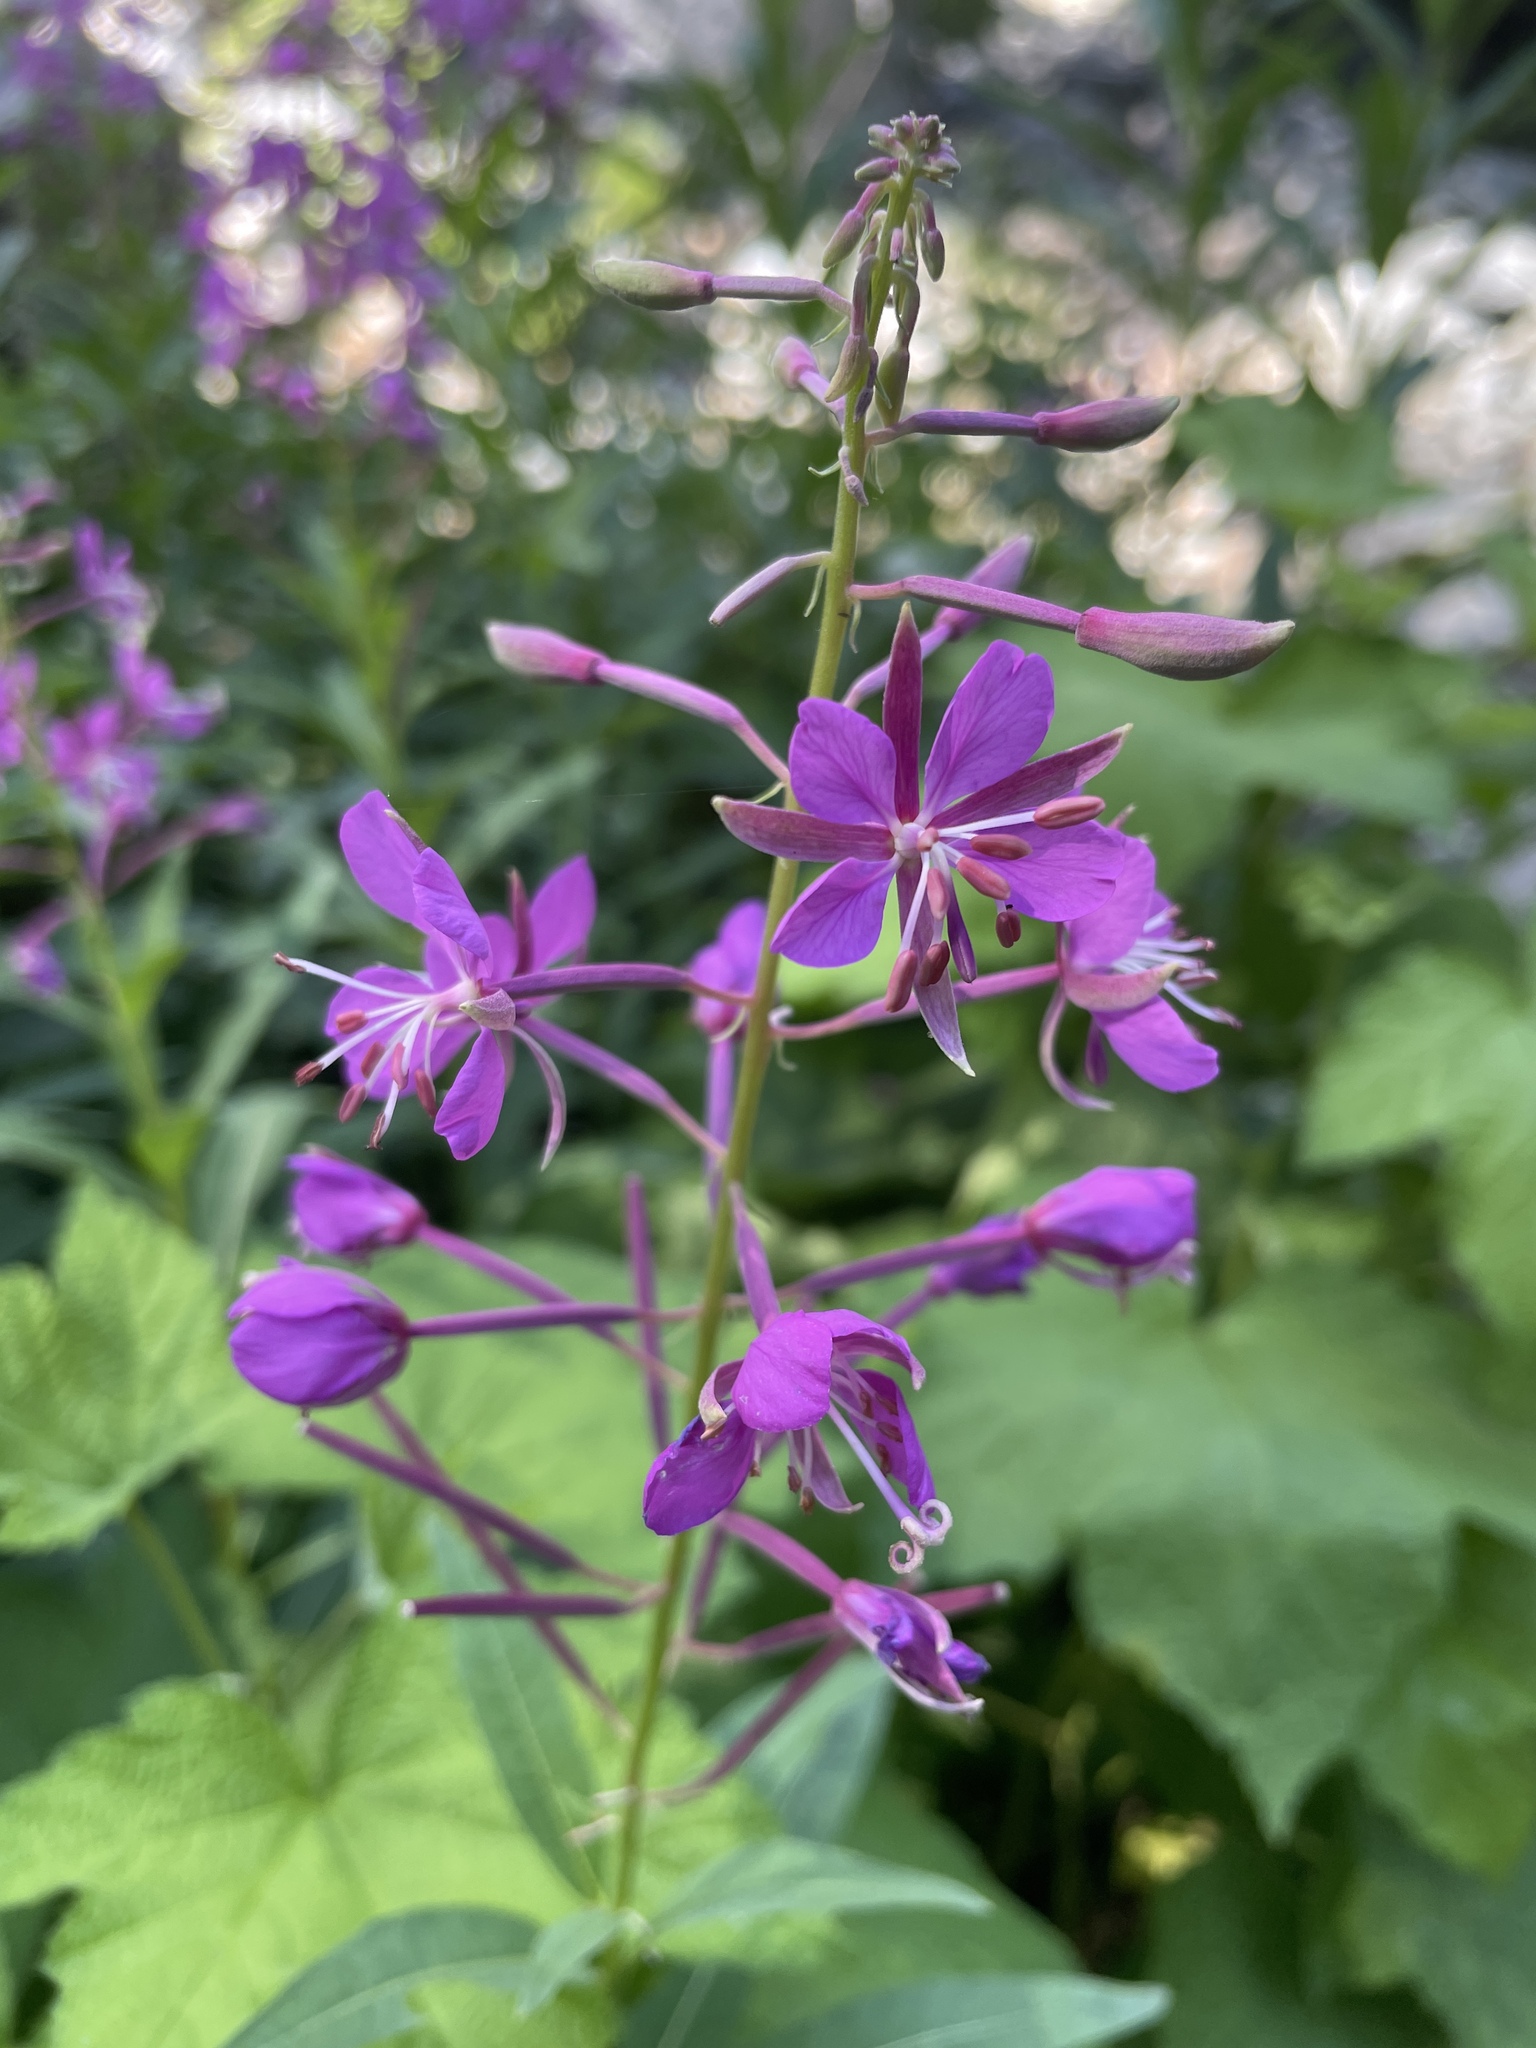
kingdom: Plantae
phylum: Tracheophyta
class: Magnoliopsida
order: Myrtales
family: Onagraceae
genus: Chamaenerion
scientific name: Chamaenerion angustifolium
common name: Fireweed
